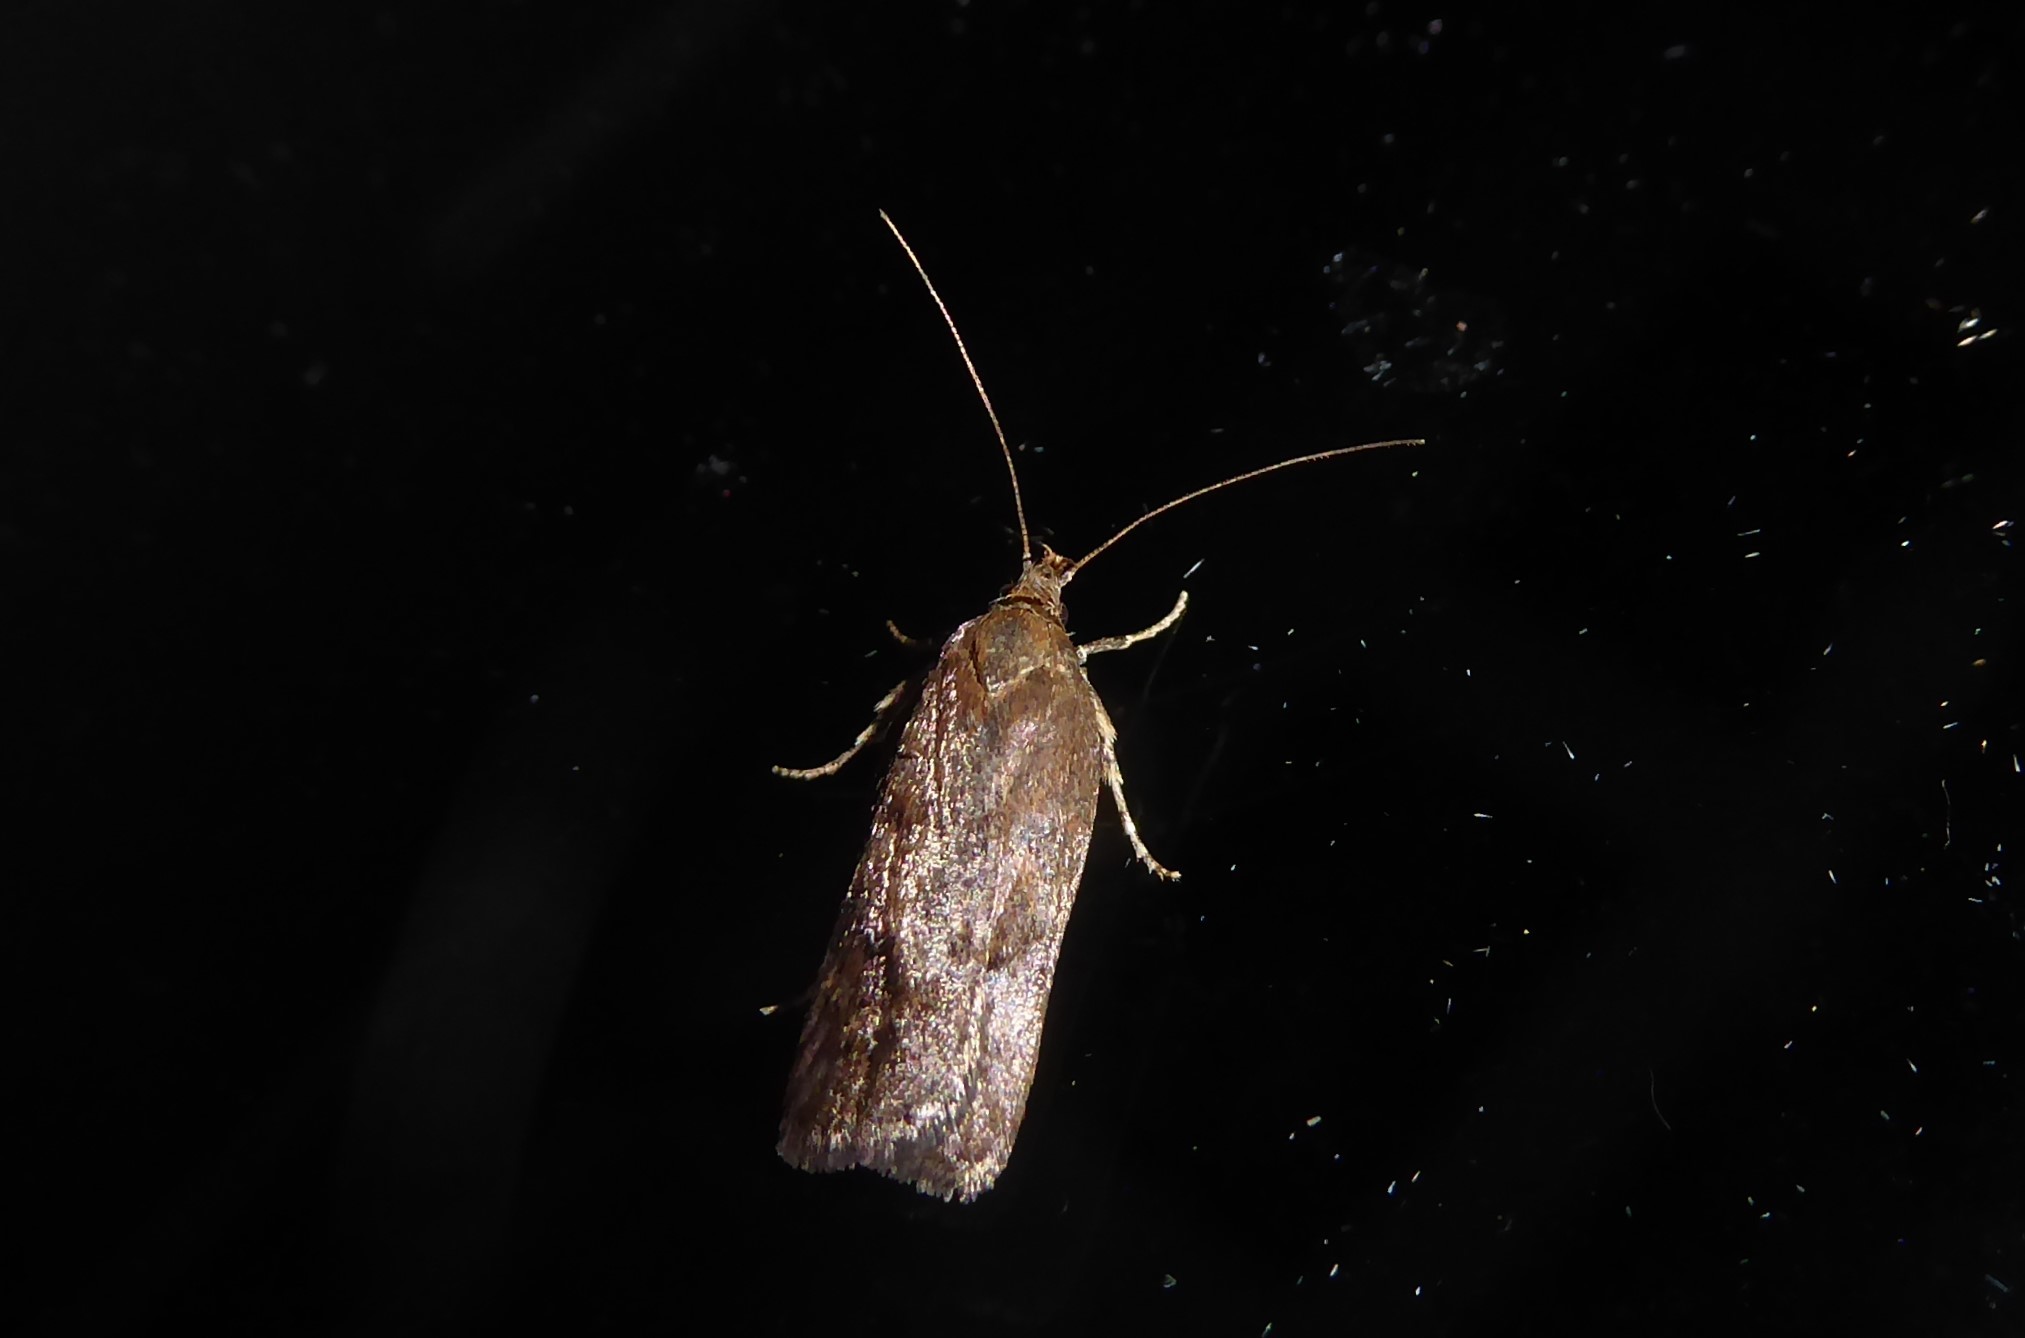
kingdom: Animalia
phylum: Arthropoda
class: Insecta
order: Lepidoptera
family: Depressariidae
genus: Phaeosaces
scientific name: Phaeosaces apocrypta
